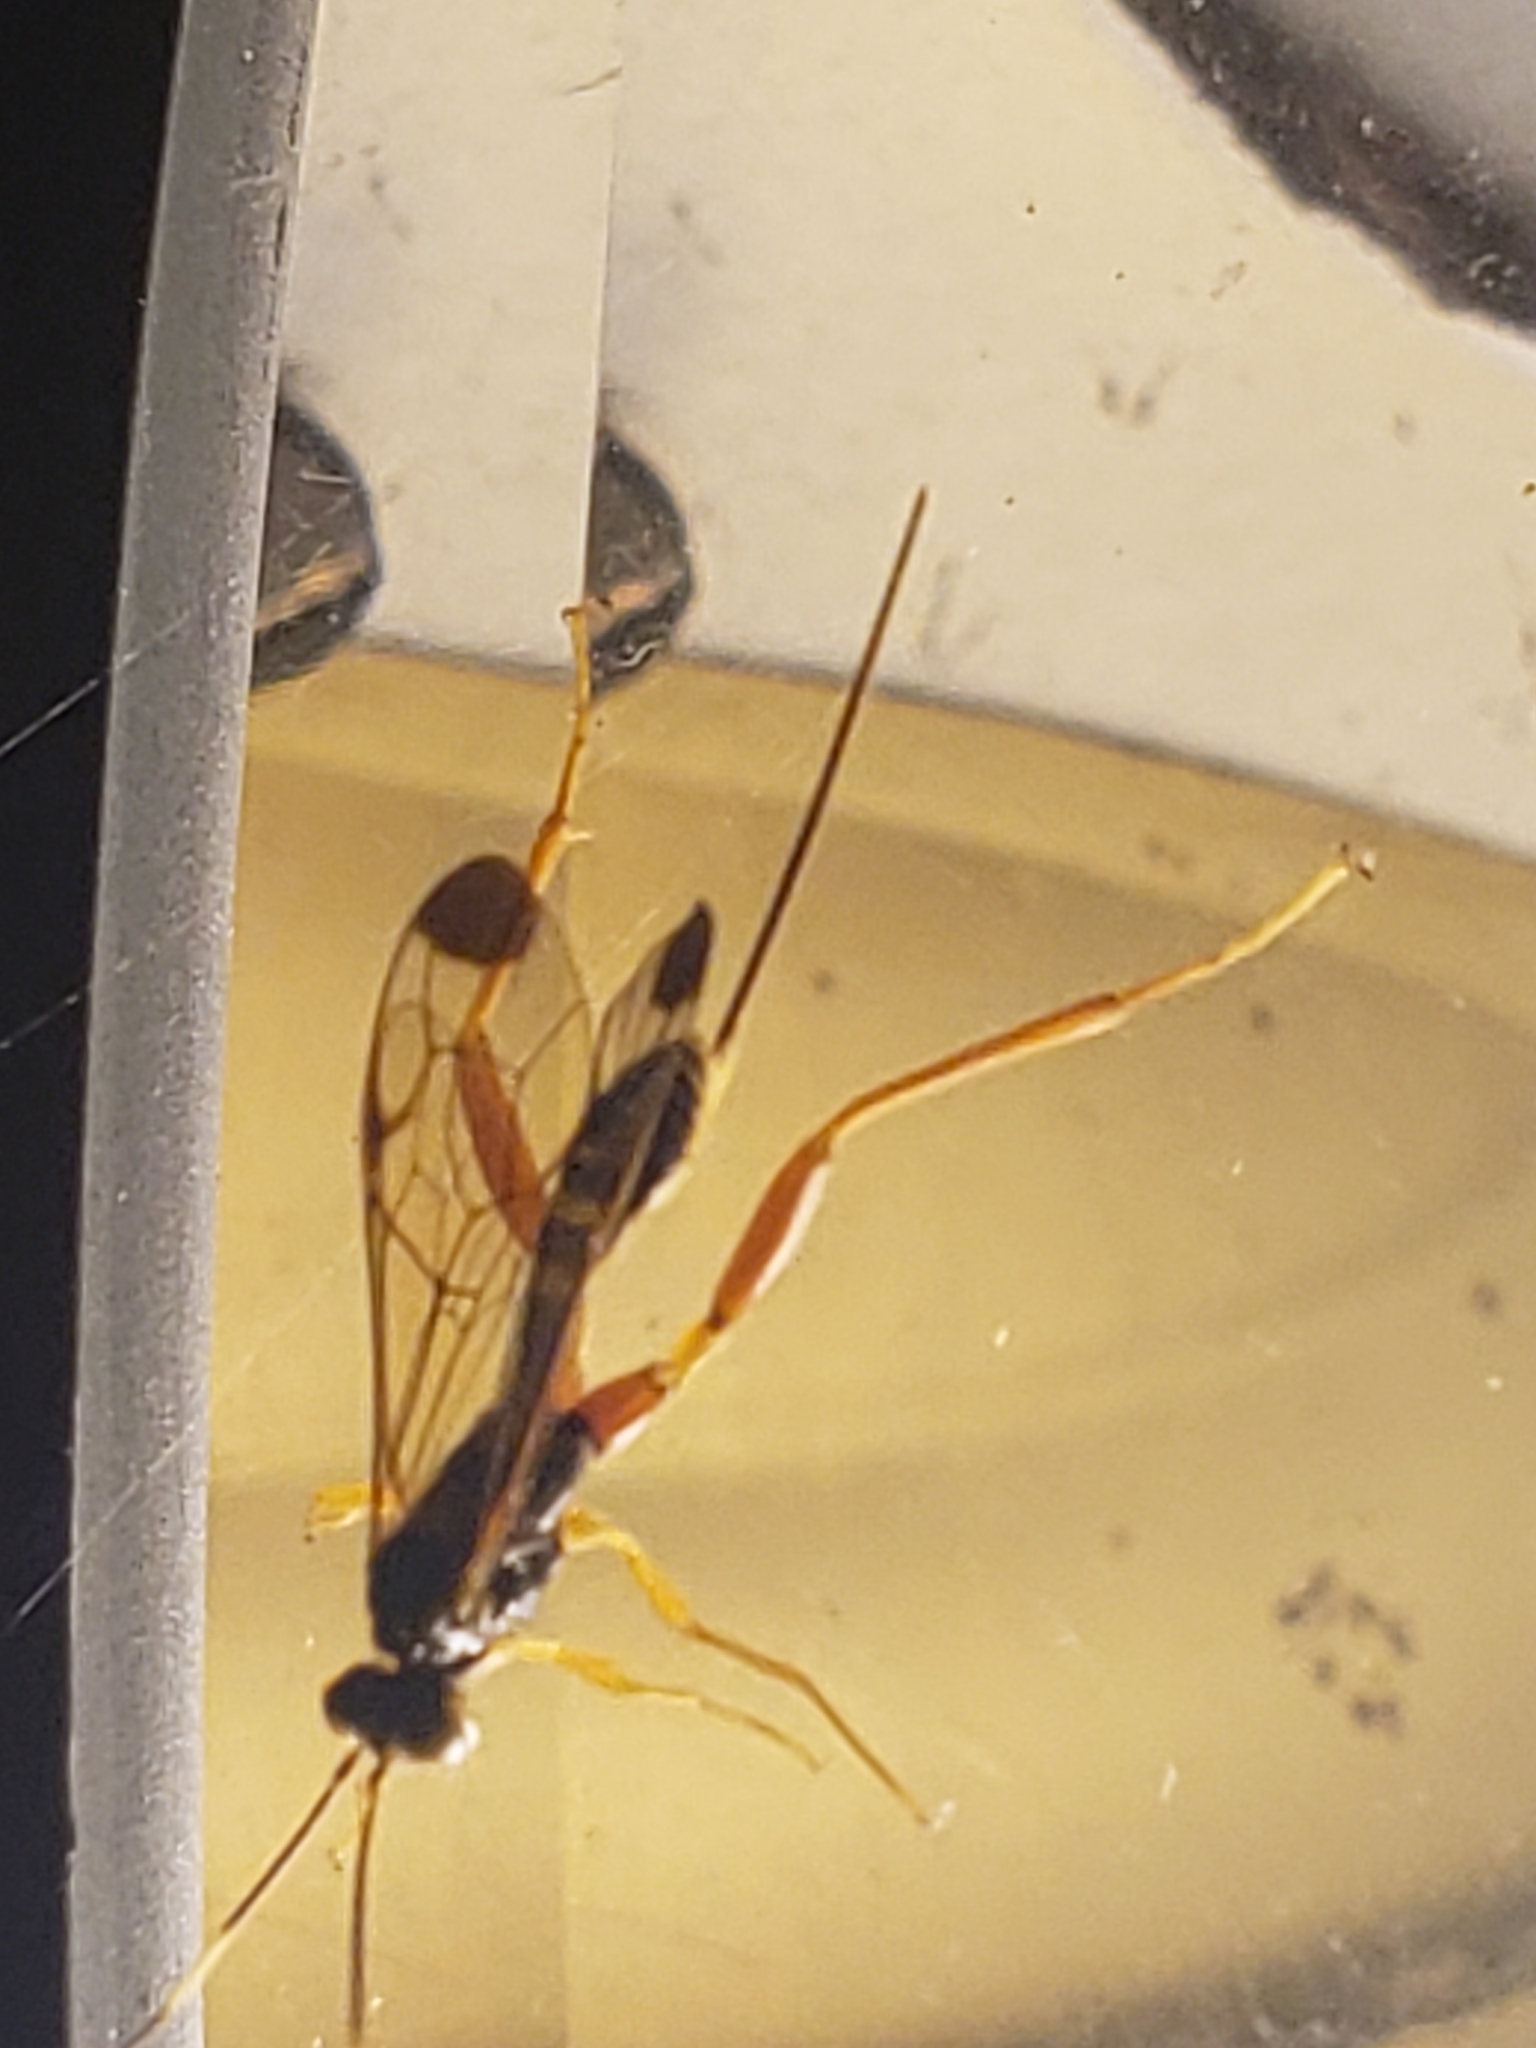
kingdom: Animalia
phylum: Arthropoda
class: Insecta
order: Hymenoptera
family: Ichneumonidae
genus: Spilopteron
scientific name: Spilopteron occiputale
